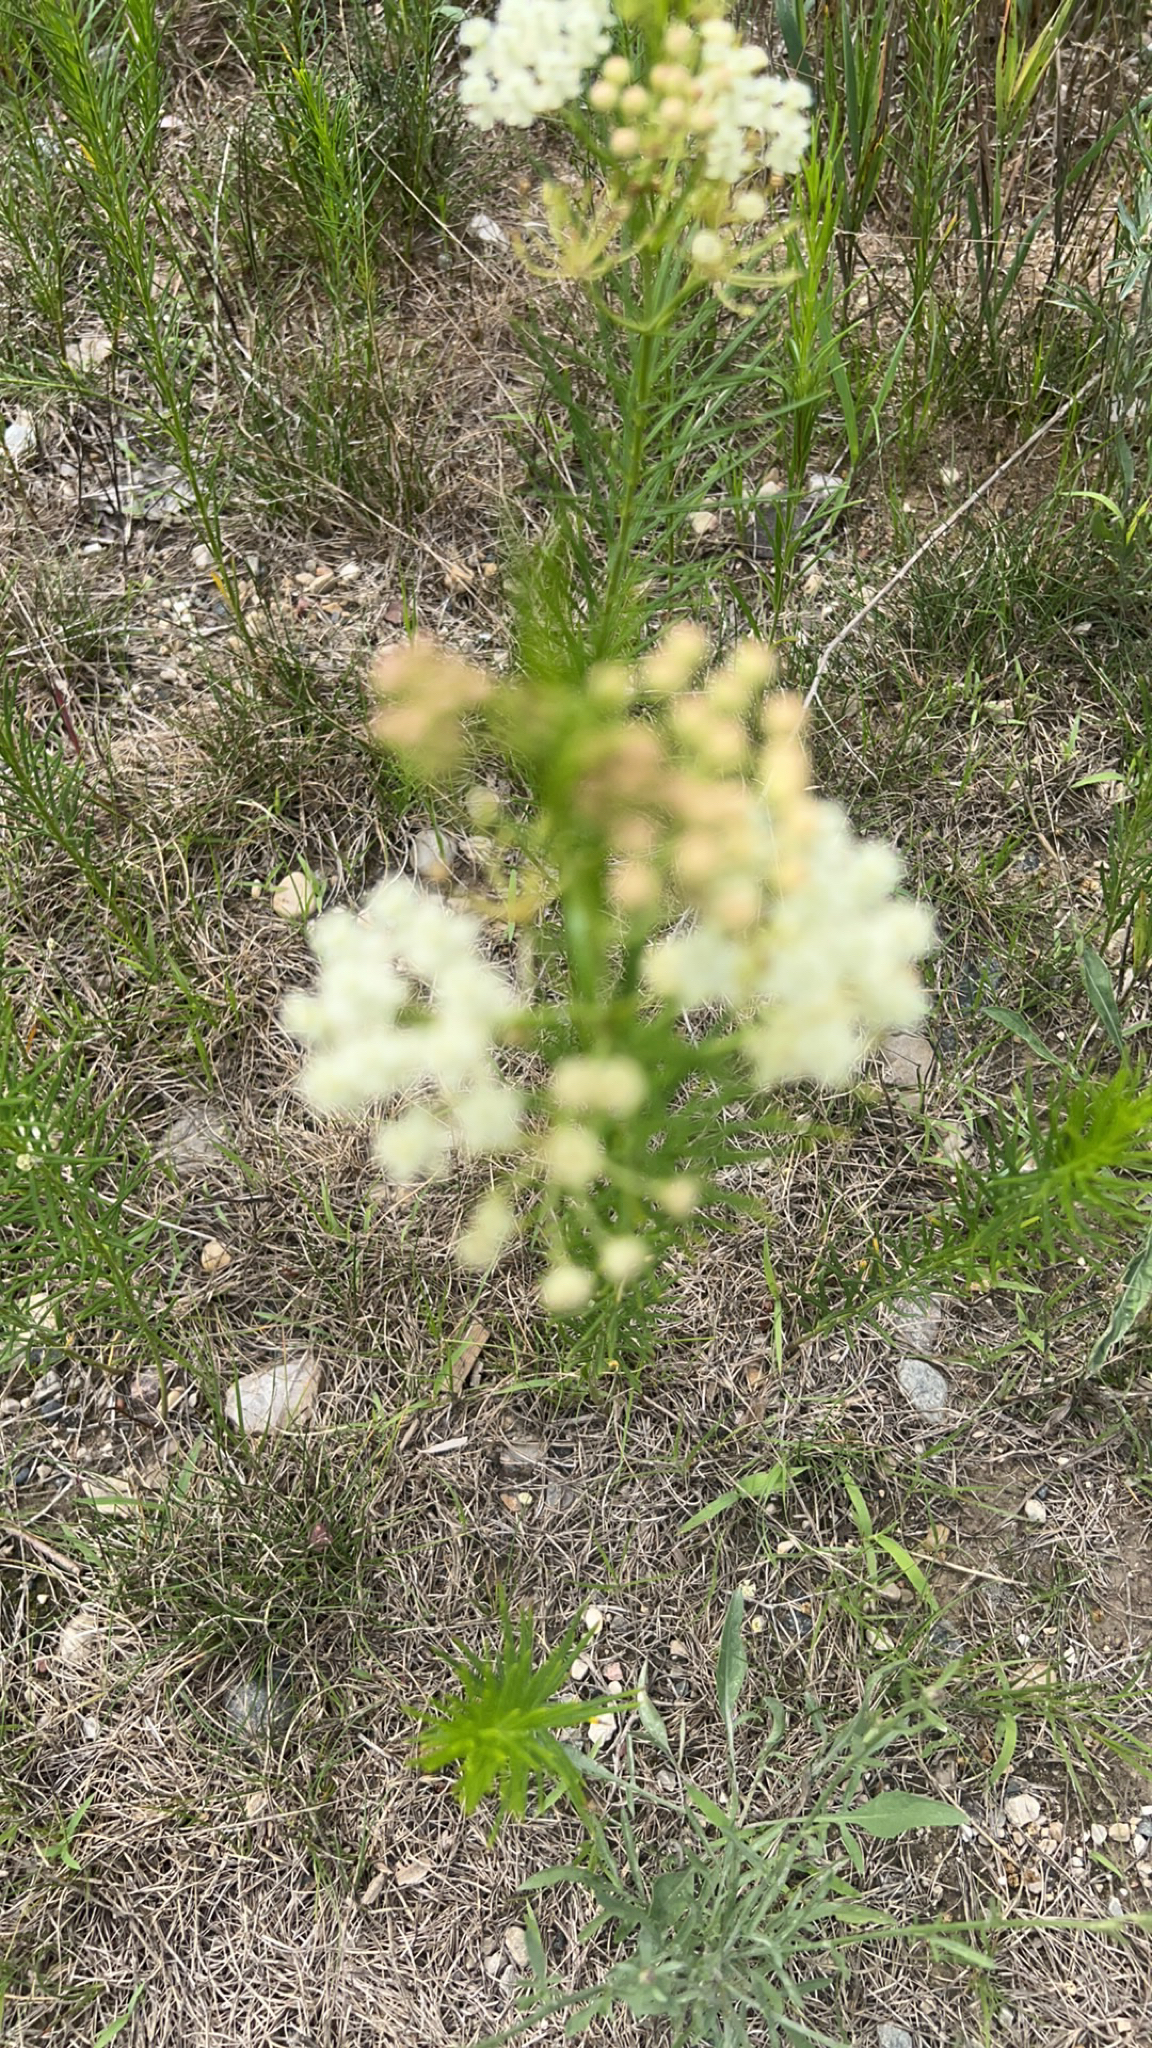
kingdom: Plantae
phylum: Tracheophyta
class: Magnoliopsida
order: Gentianales
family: Apocynaceae
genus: Asclepias
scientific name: Asclepias verticillata
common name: Eastern whorled milkweed
